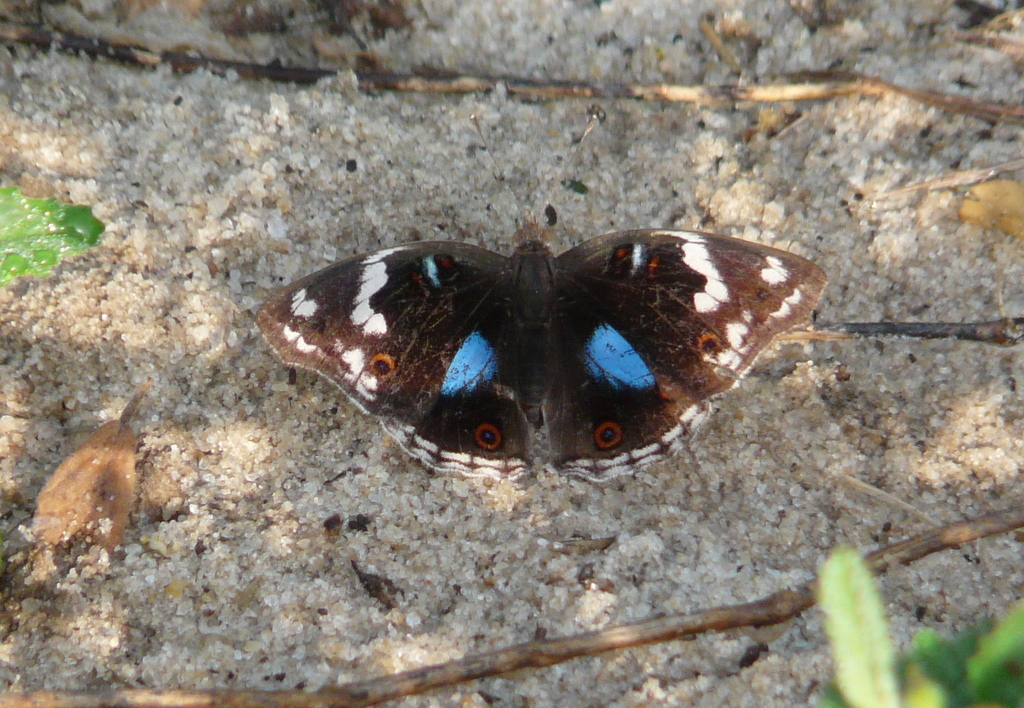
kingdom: Animalia
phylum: Arthropoda
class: Insecta
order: Lepidoptera
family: Nymphalidae
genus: Junonia
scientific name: Junonia oenone
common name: Dark blue pansy
